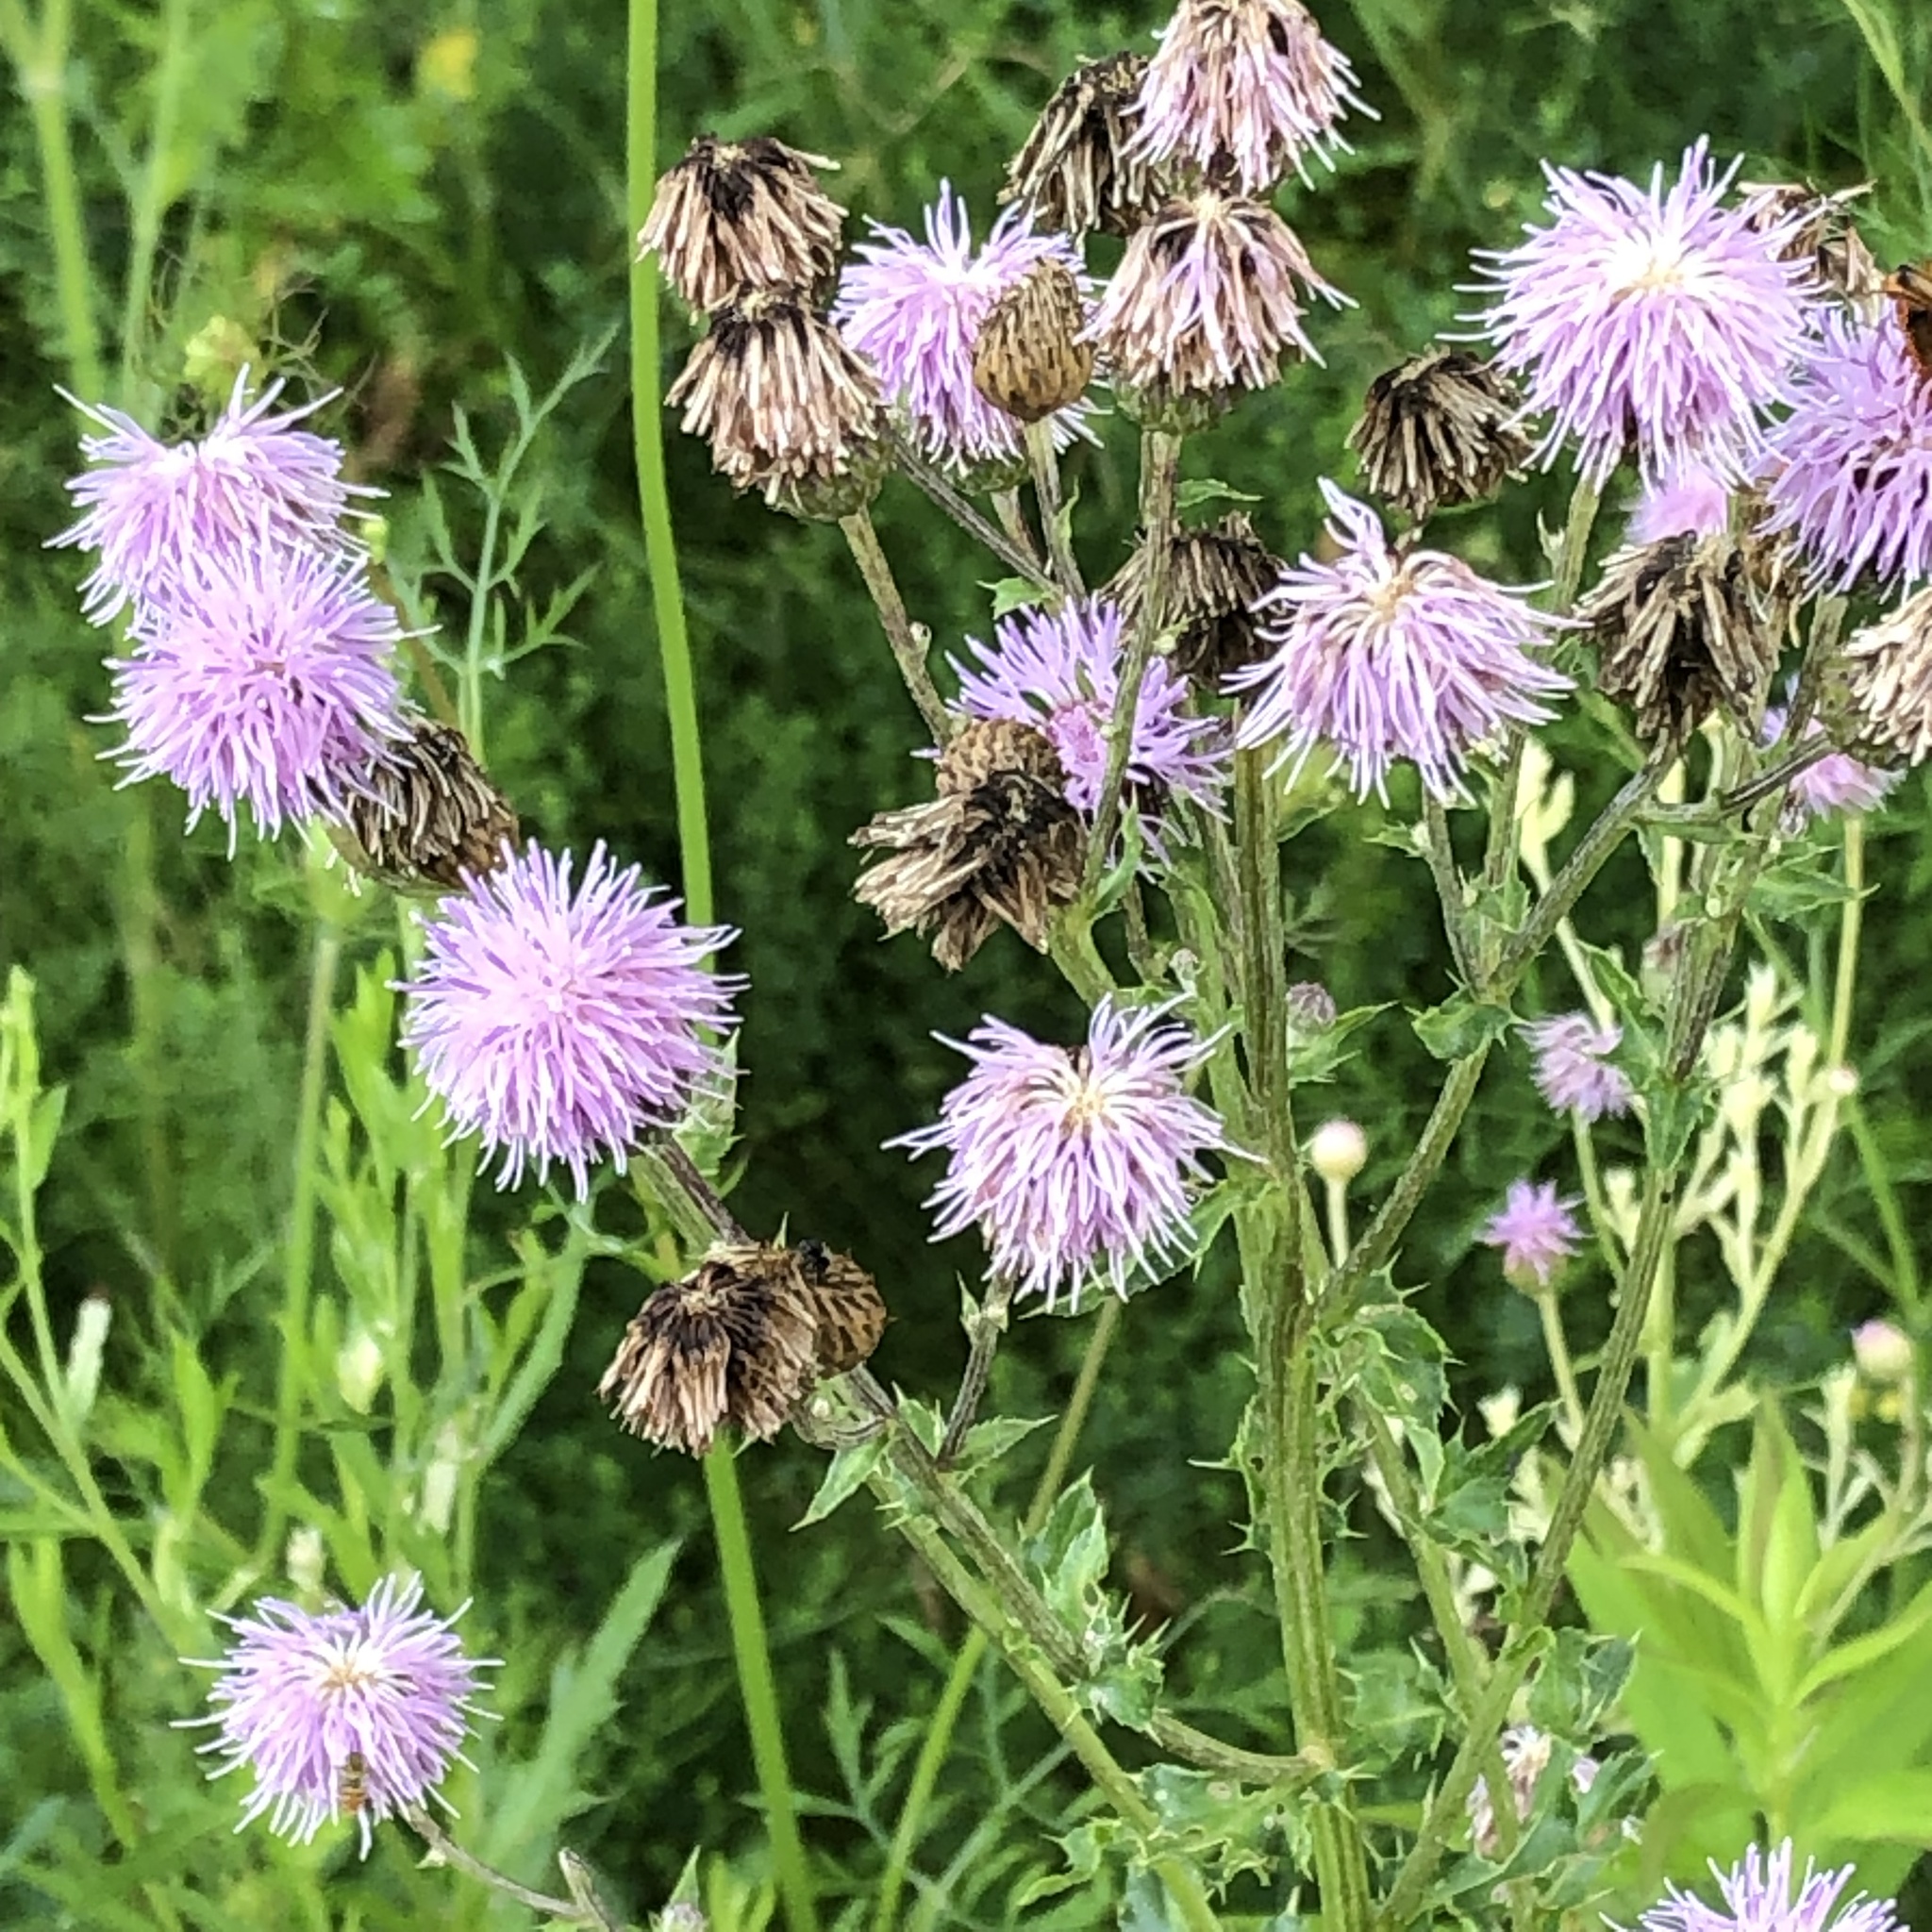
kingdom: Plantae
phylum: Tracheophyta
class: Magnoliopsida
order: Asterales
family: Asteraceae
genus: Cirsium
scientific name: Cirsium arvense
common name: Creeping thistle
